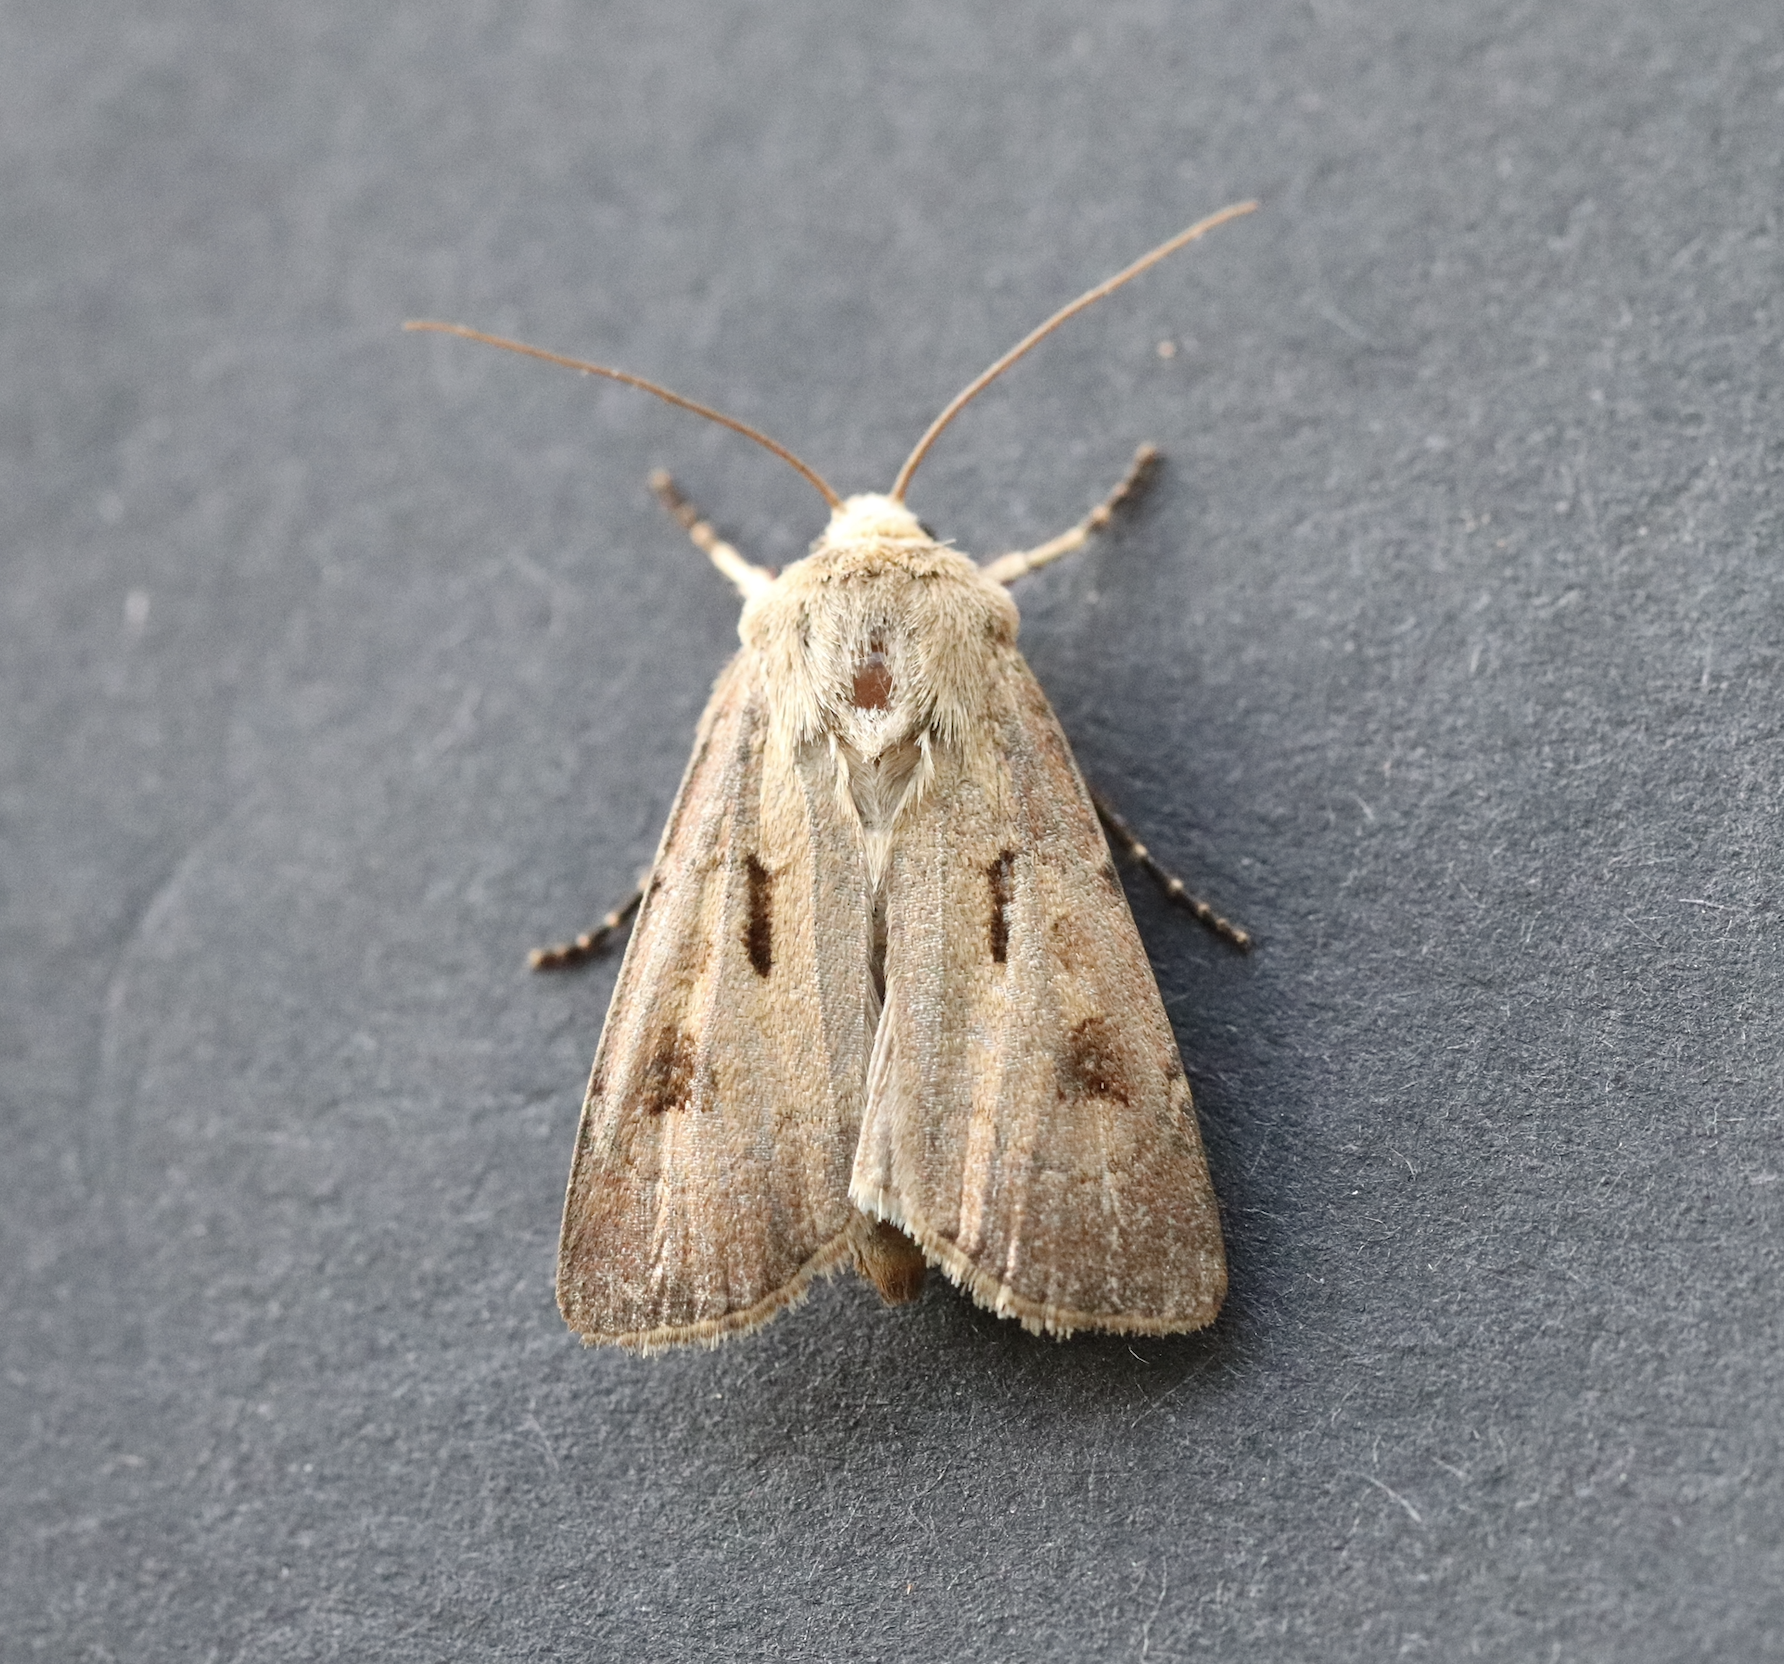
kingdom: Animalia
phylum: Arthropoda
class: Insecta
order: Lepidoptera
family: Noctuidae
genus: Agrotis
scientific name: Agrotis exclamationis
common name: Heart and dart
